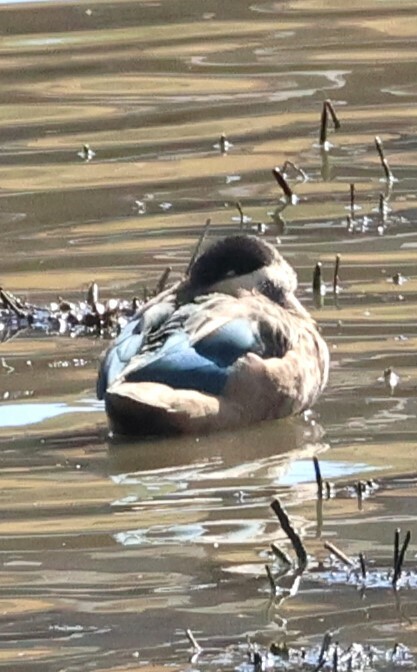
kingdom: Animalia
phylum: Chordata
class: Aves
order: Anseriformes
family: Anatidae
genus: Spatula
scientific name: Spatula hottentota
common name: Blue-billed teal
